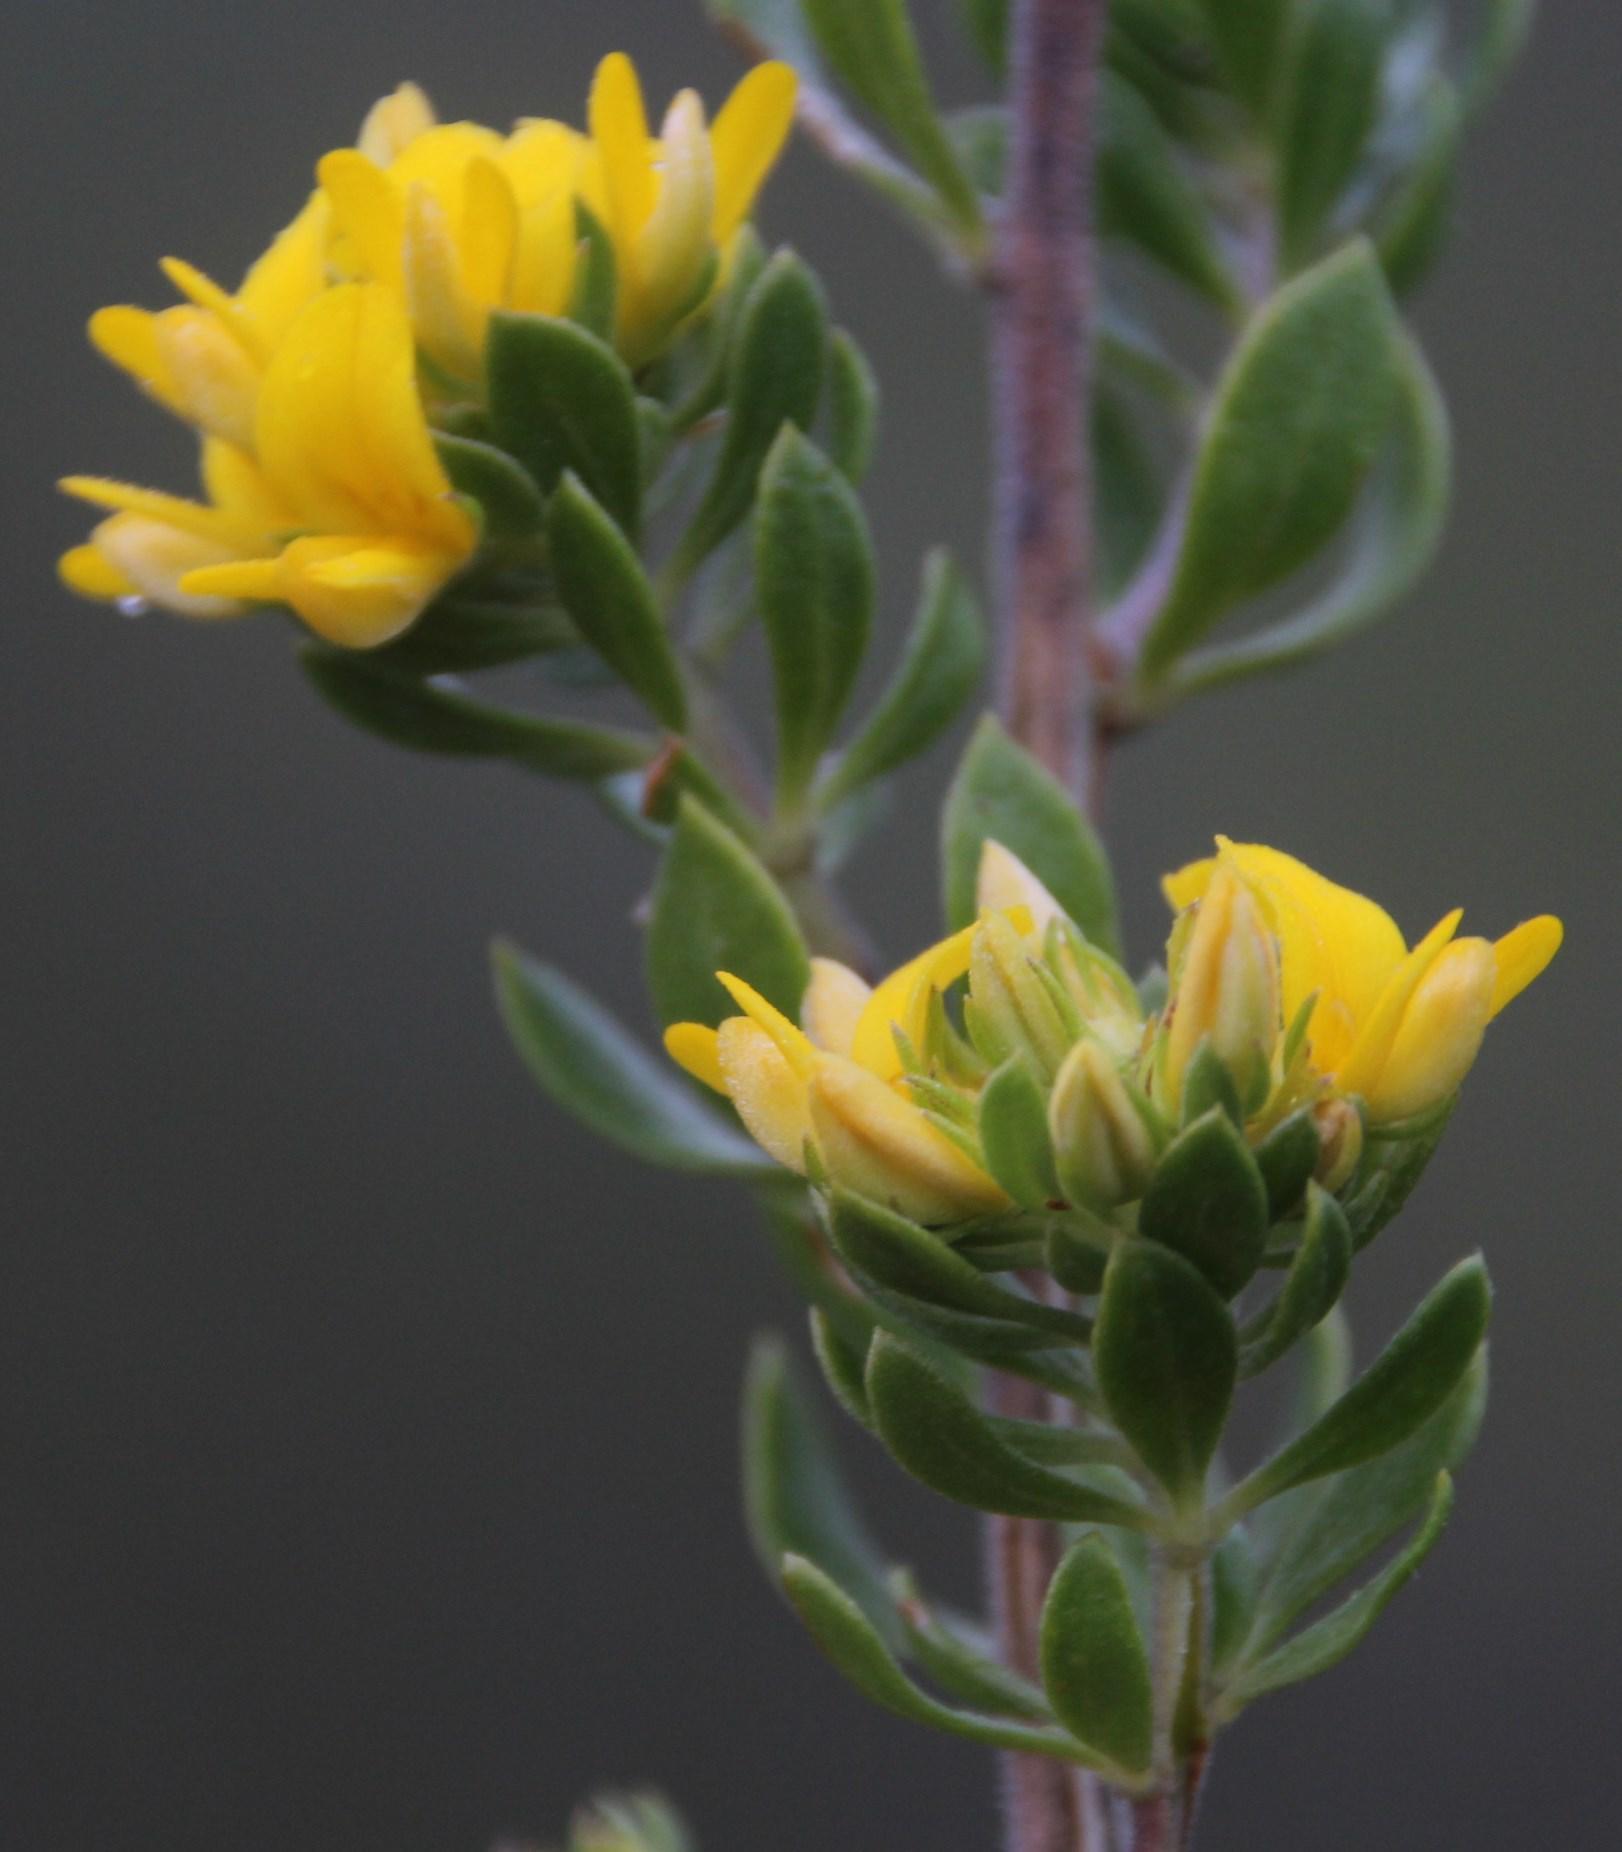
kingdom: Plantae
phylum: Tracheophyta
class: Magnoliopsida
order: Fabales
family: Fabaceae
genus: Aspalathus
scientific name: Aspalathus securifolia
